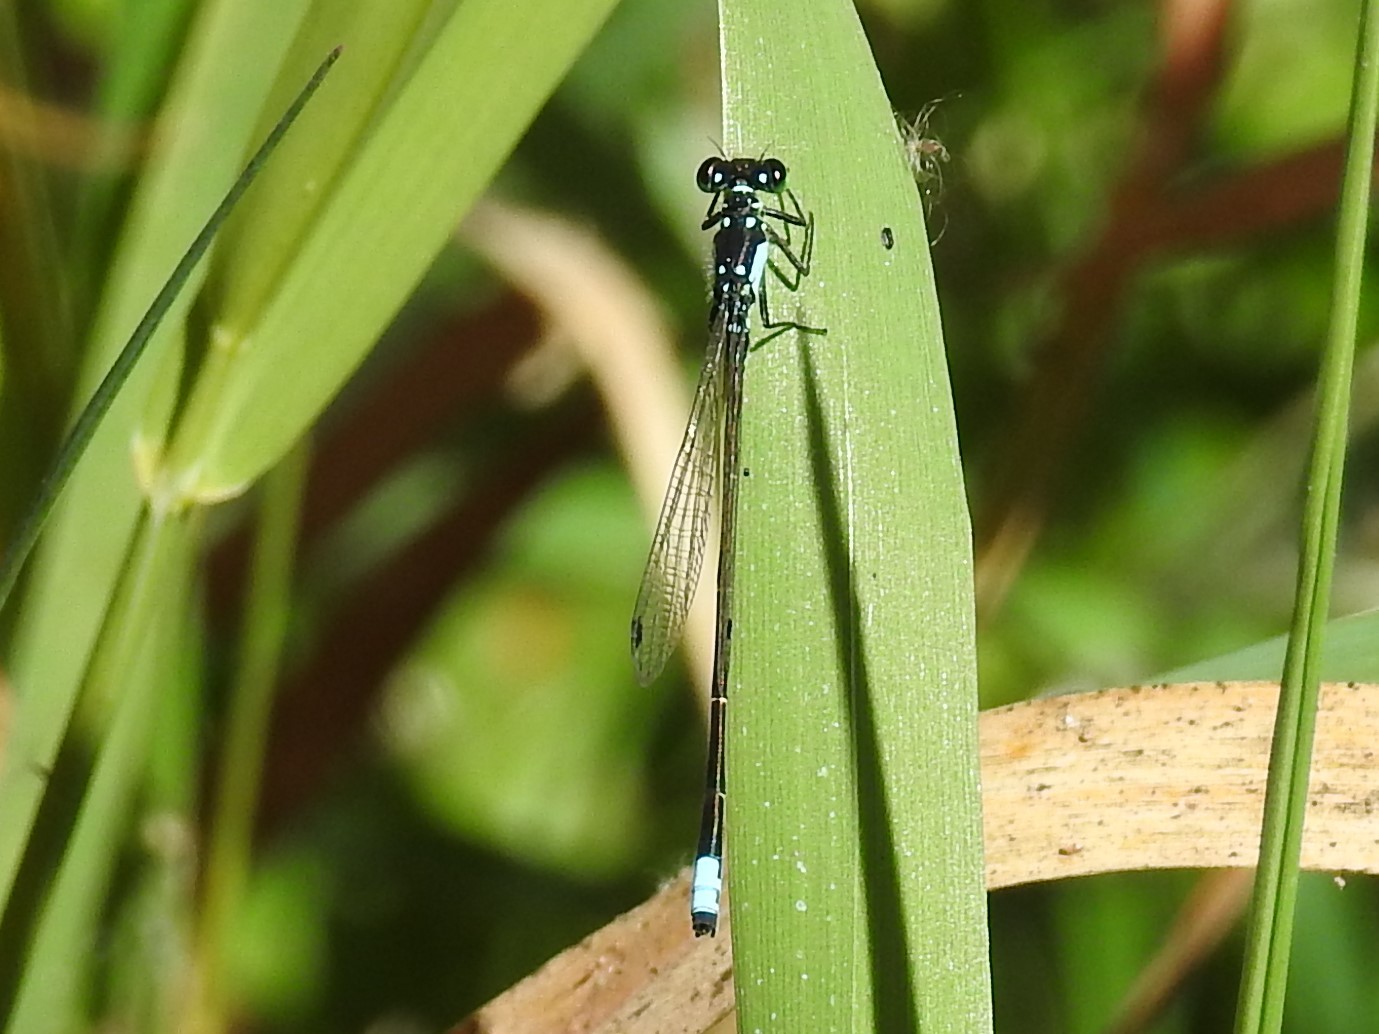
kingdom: Animalia
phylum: Arthropoda
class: Insecta
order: Odonata
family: Coenagrionidae
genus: Ischnura
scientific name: Ischnura cervula
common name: Pacific forktail
